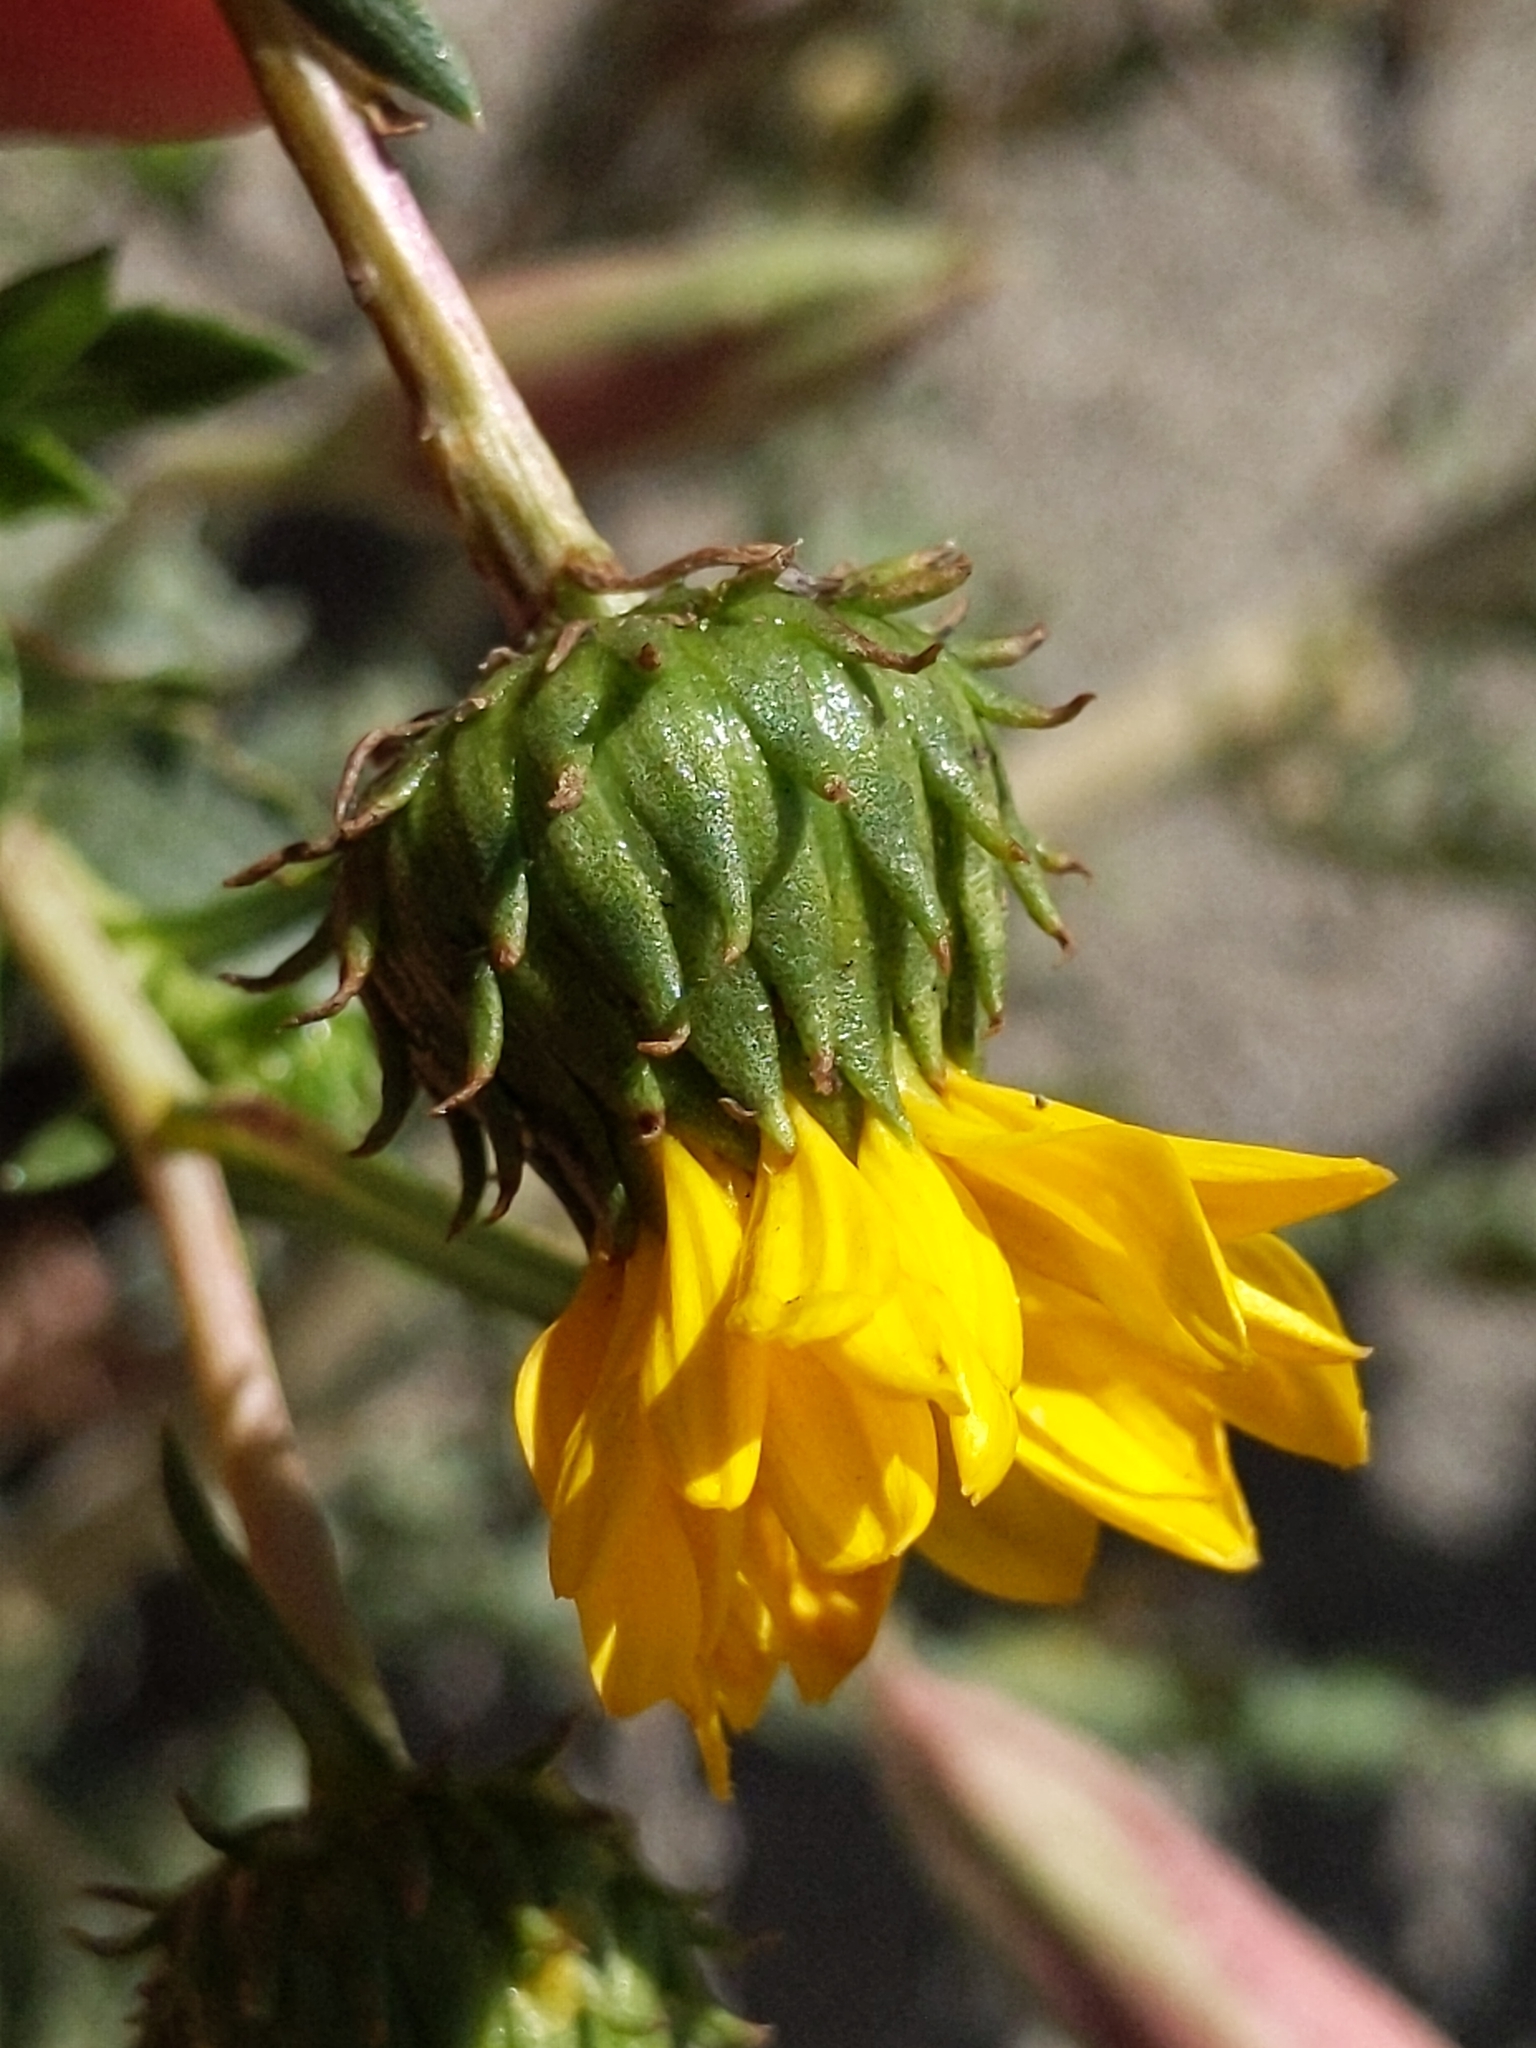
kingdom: Plantae
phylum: Tracheophyta
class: Magnoliopsida
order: Asterales
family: Asteraceae
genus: Grindelia
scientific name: Grindelia hirsutula
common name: Hairy gumweed
